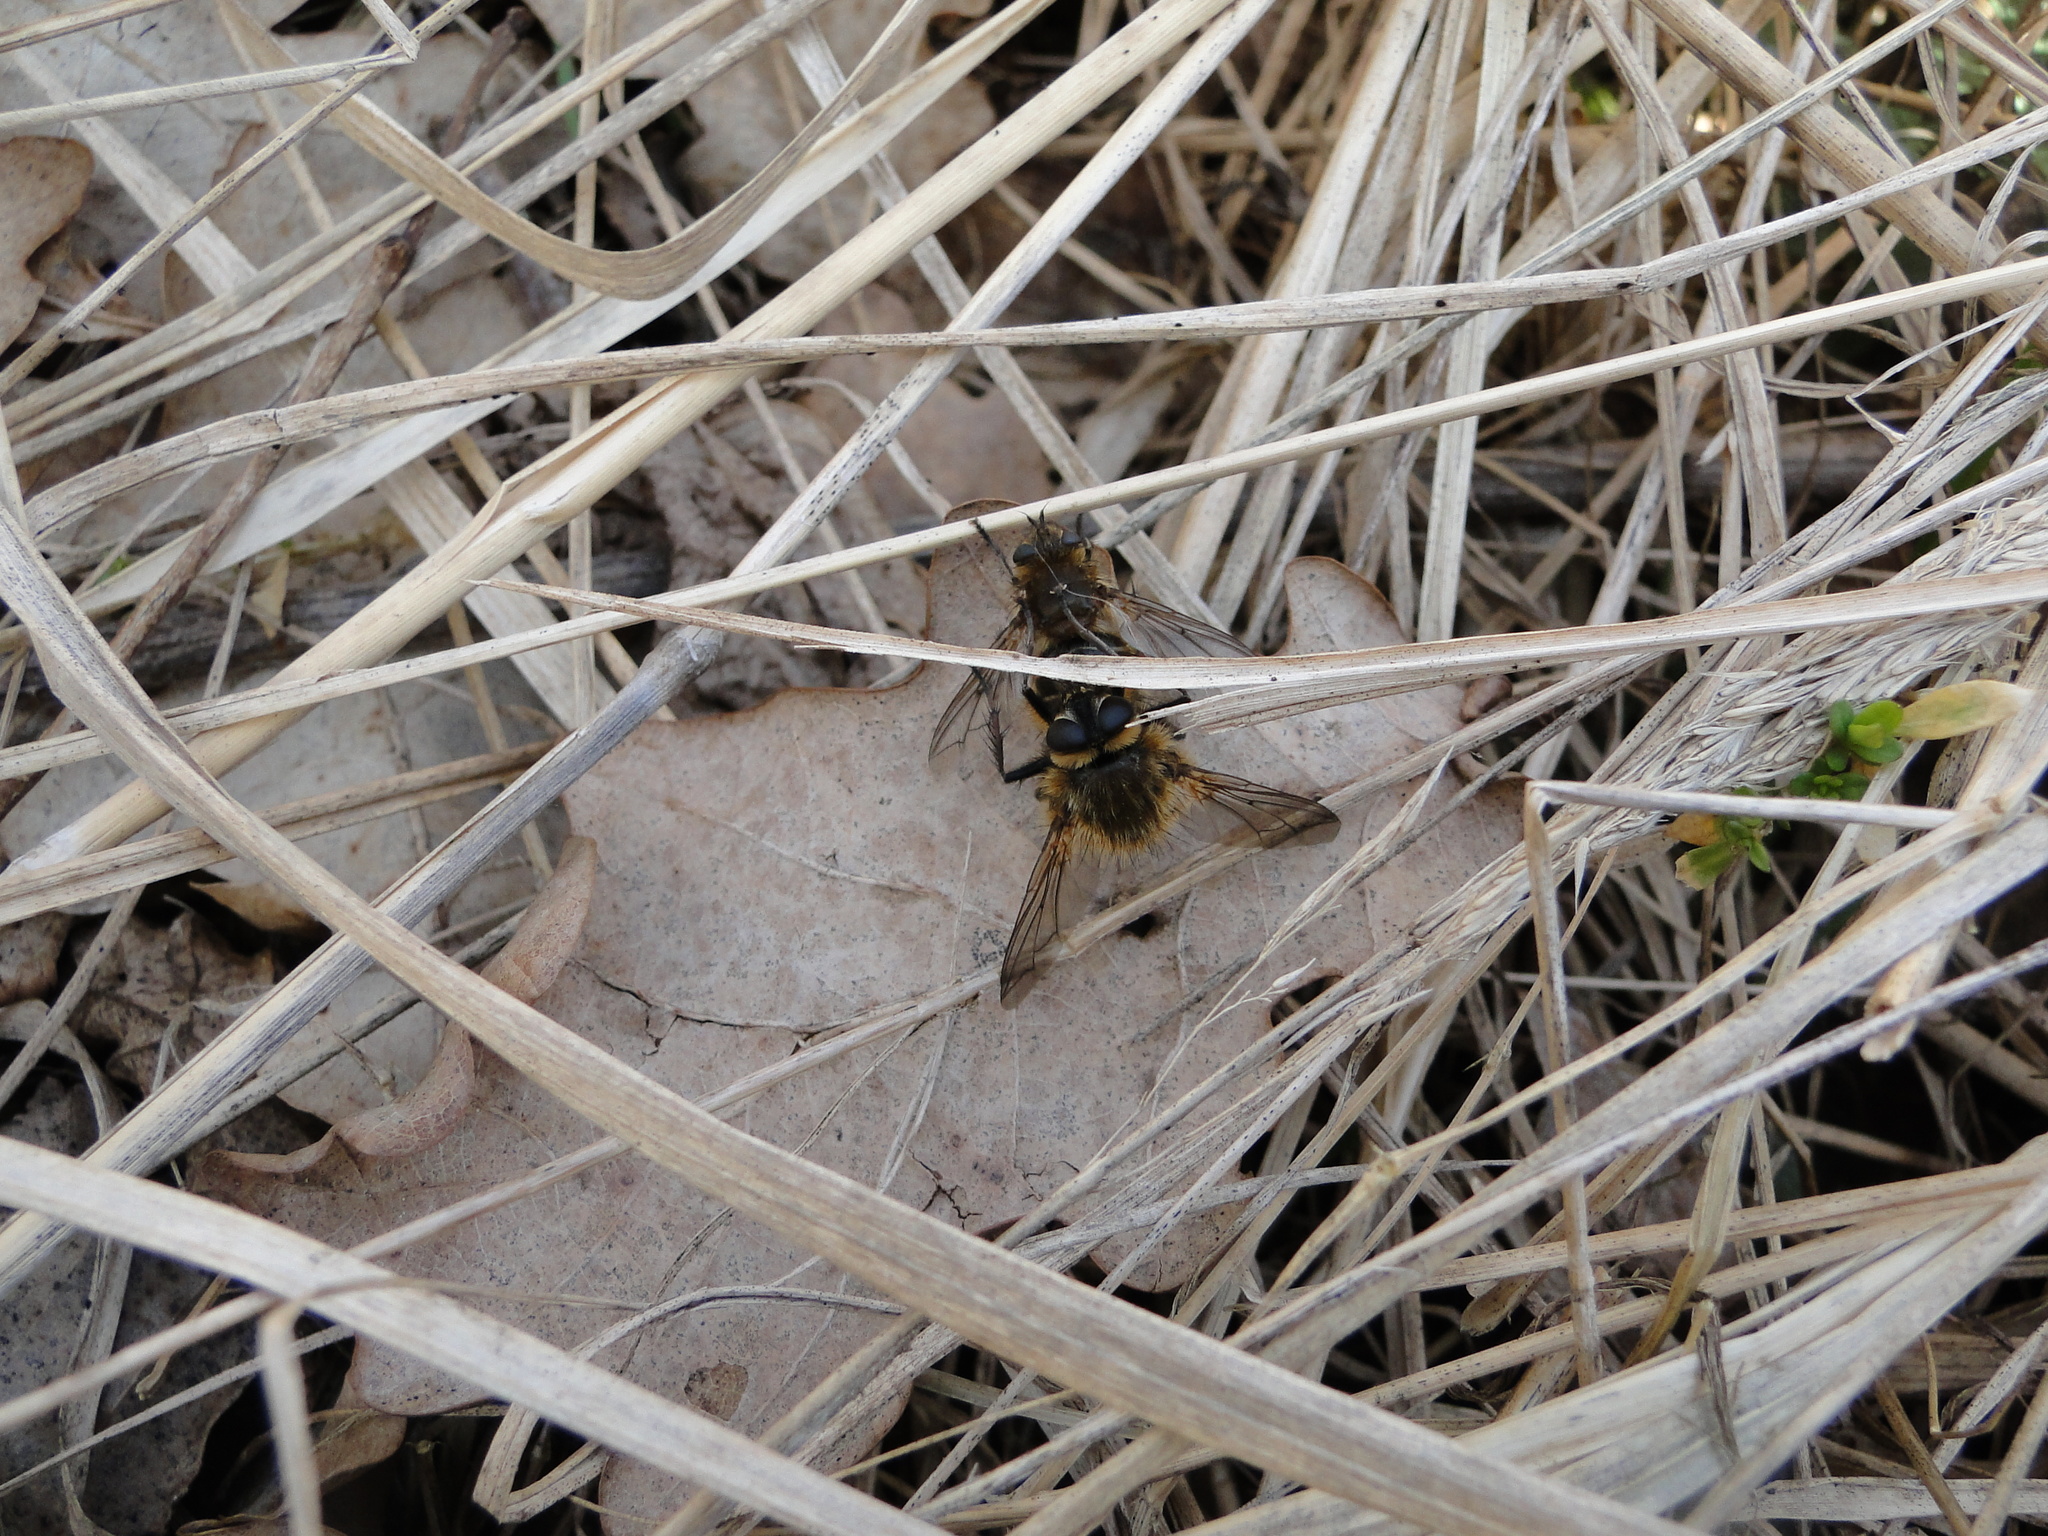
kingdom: Animalia
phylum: Arthropoda
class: Insecta
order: Diptera
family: Tachinidae
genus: Tachina
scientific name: Tachina ursina
